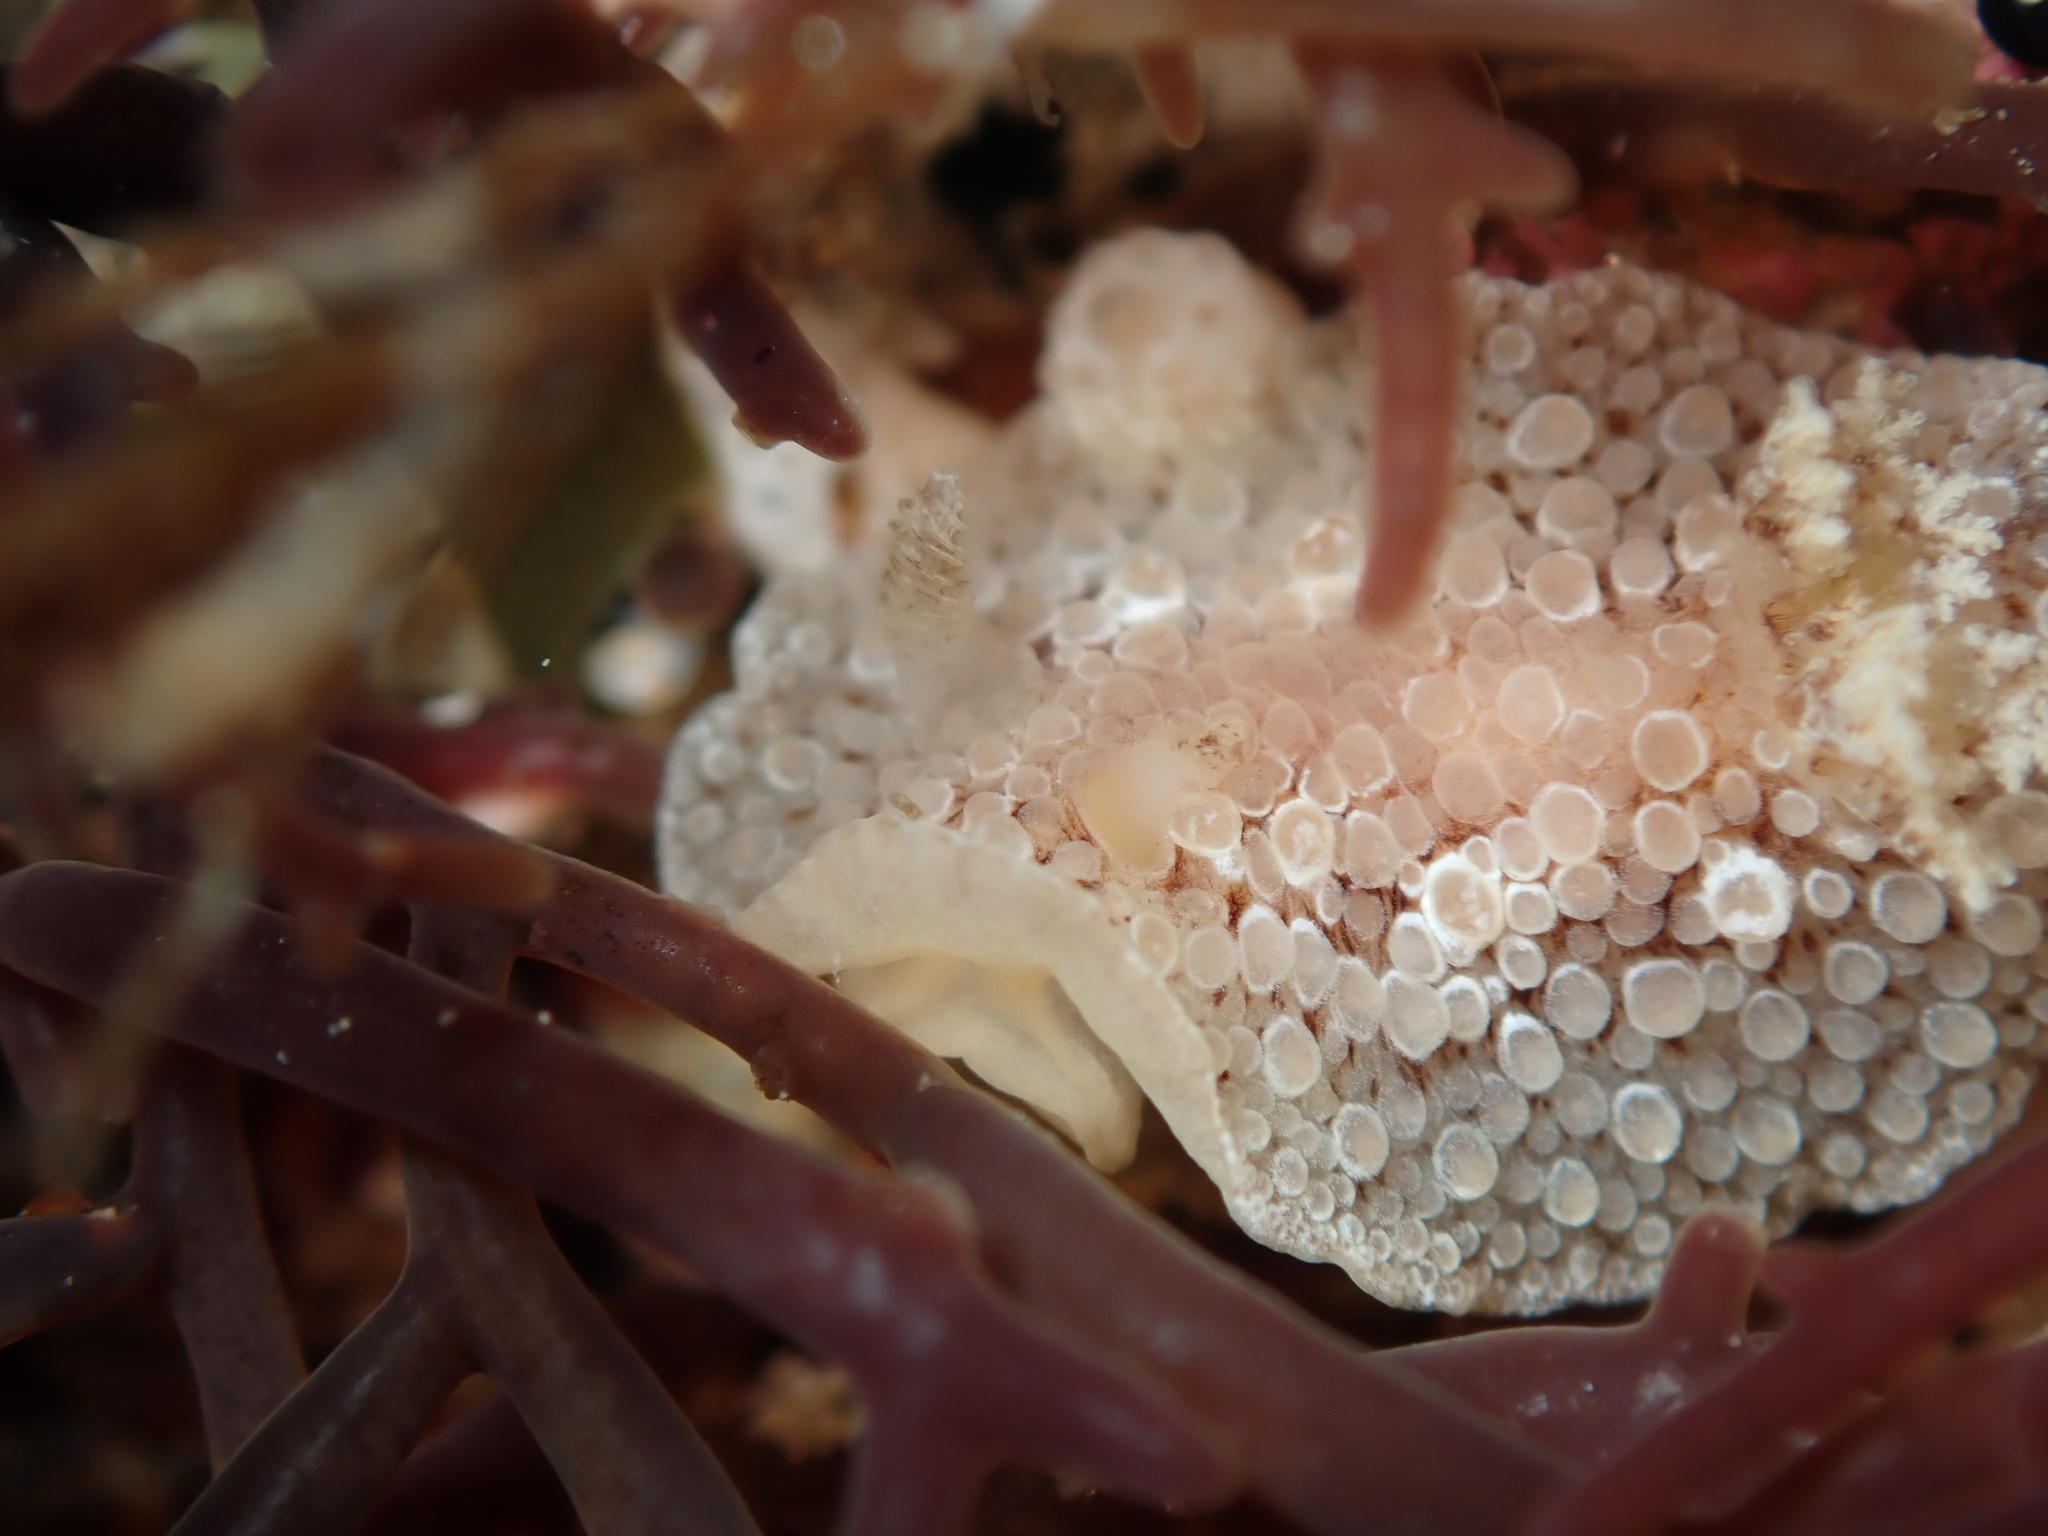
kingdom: Animalia
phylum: Mollusca
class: Gastropoda
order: Nudibranchia
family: Discodorididae
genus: Carminodoris
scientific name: Carminodoris nodulosa
